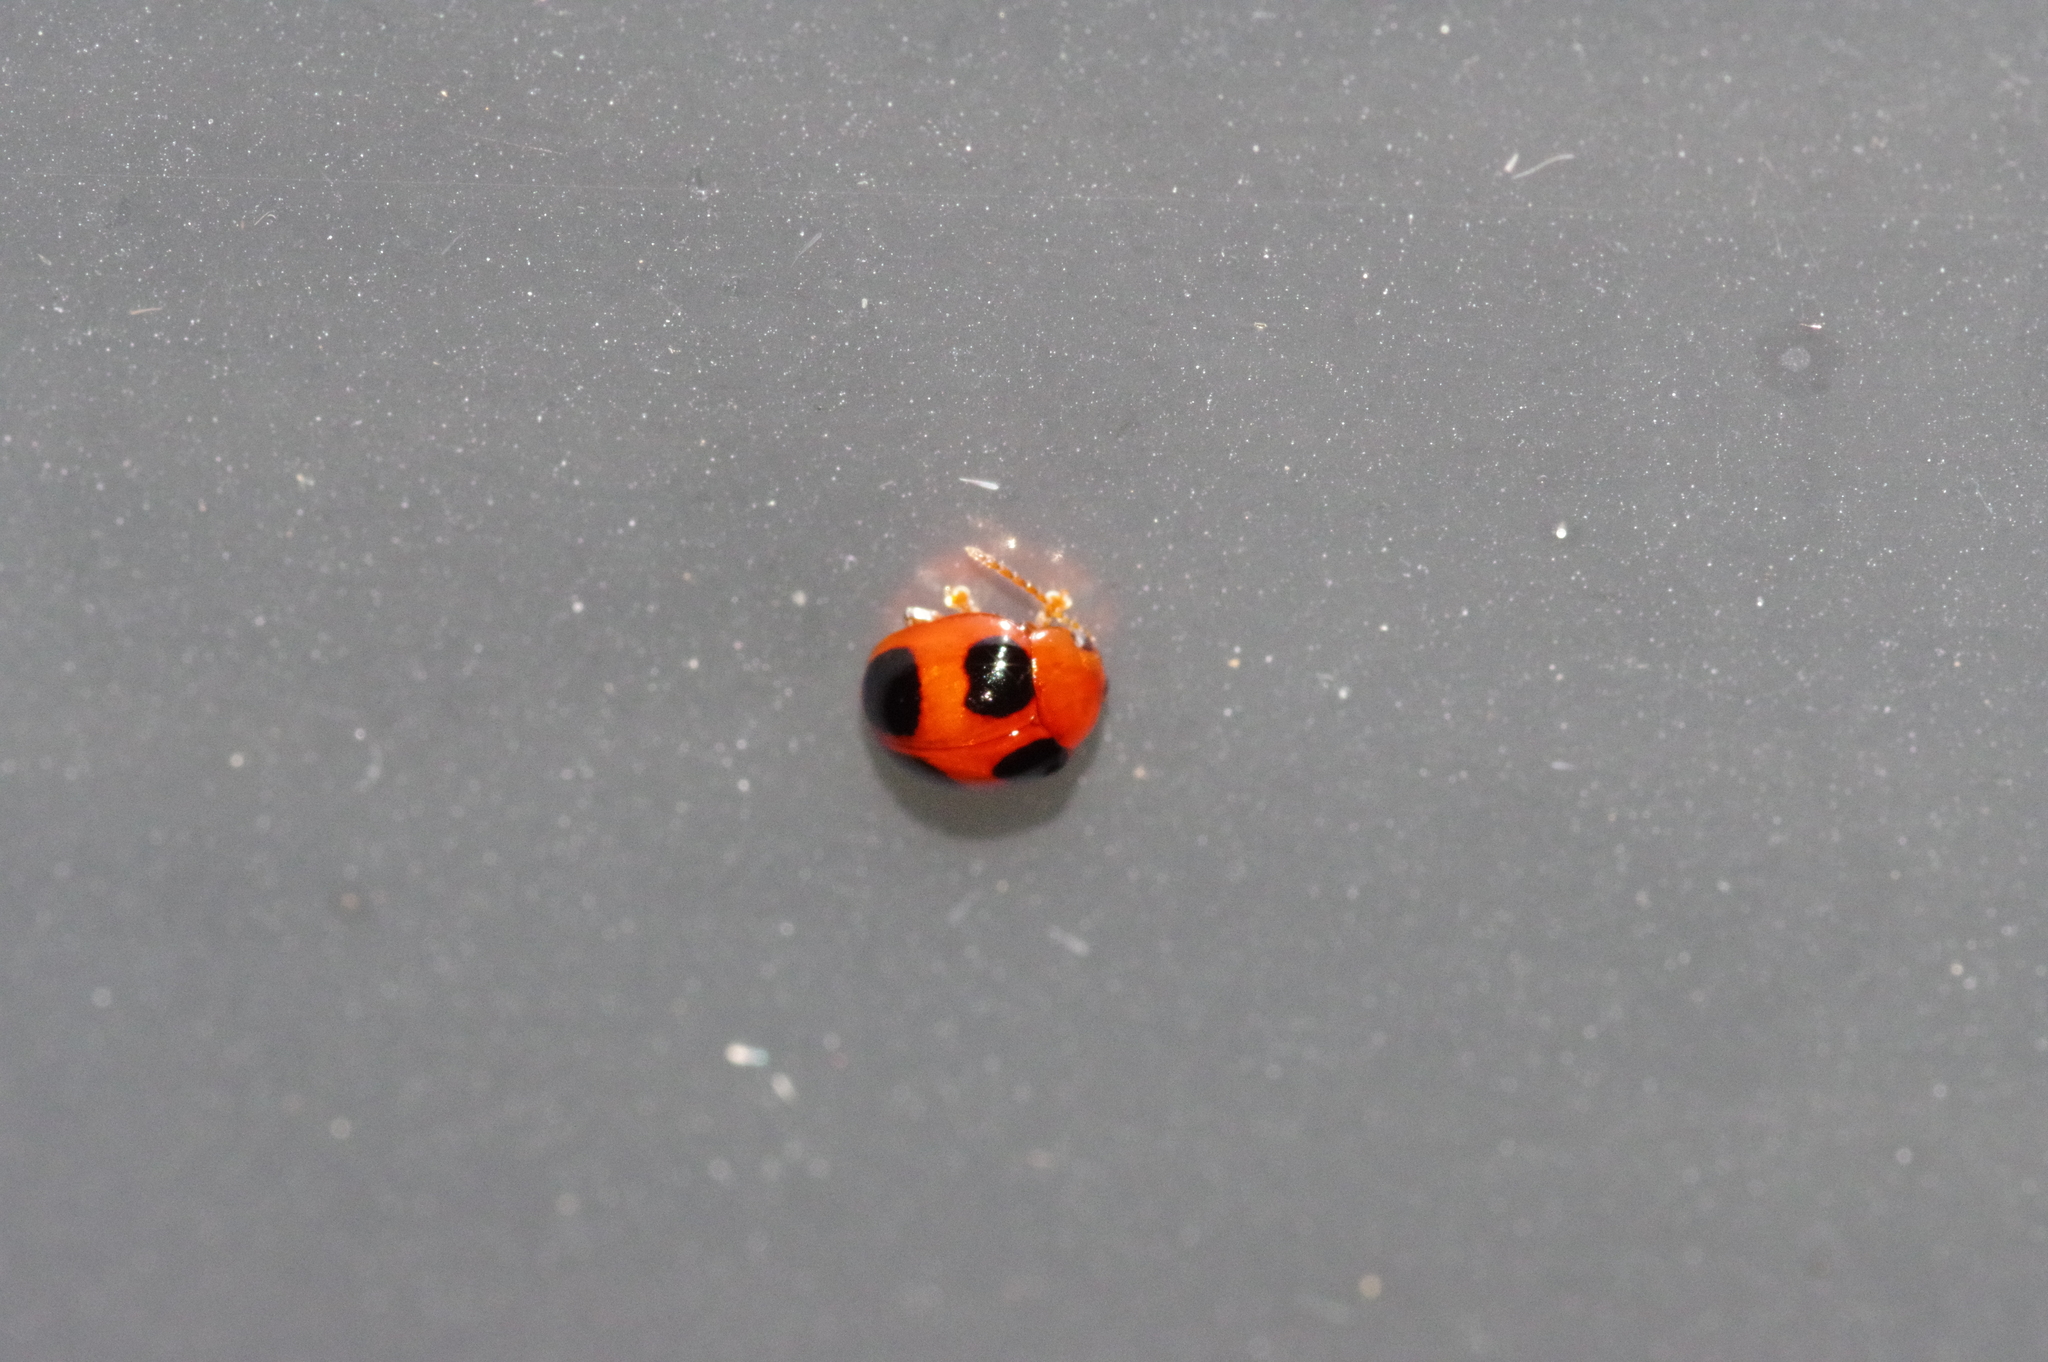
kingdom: Animalia
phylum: Arthropoda
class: Insecta
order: Coleoptera
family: Chrysomelidae
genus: Sphaeroderma
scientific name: Sphaeroderma
